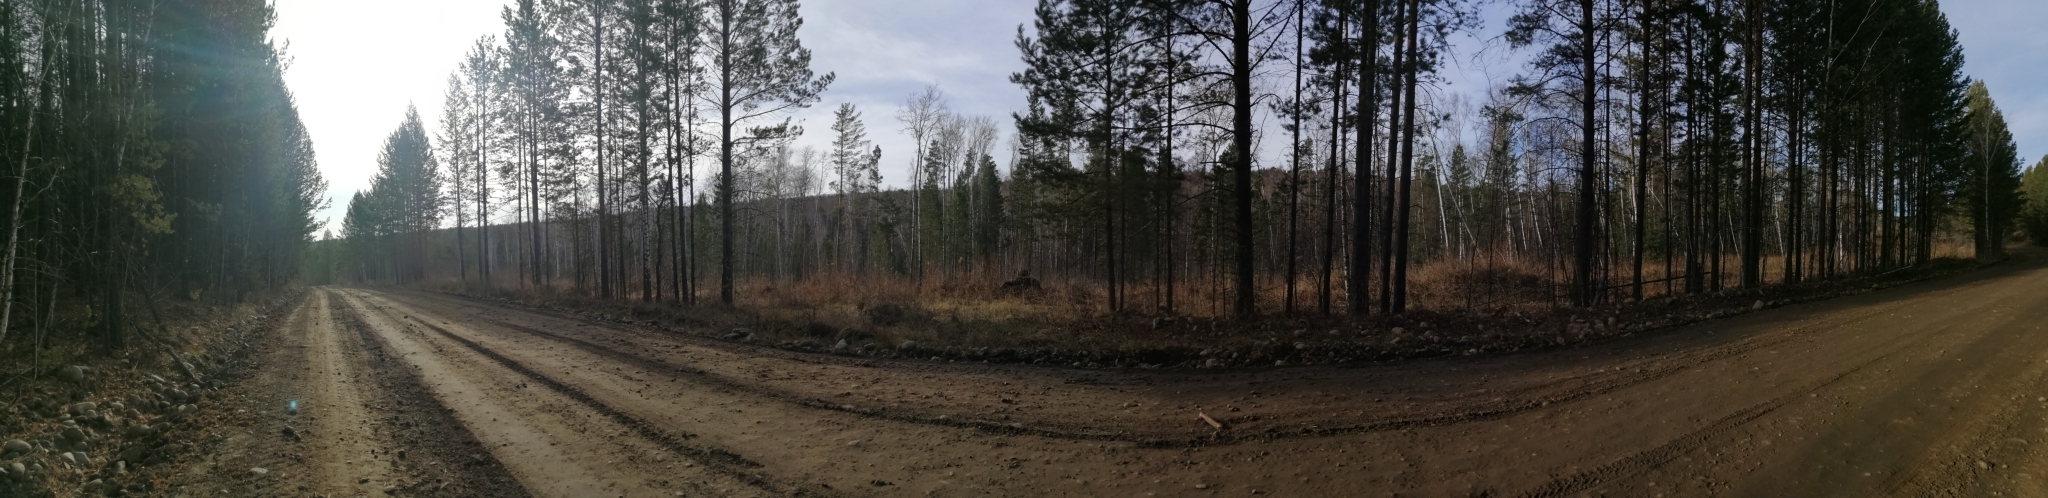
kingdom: Plantae
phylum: Tracheophyta
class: Pinopsida
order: Pinales
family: Pinaceae
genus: Pinus
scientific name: Pinus sylvestris
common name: Scots pine
